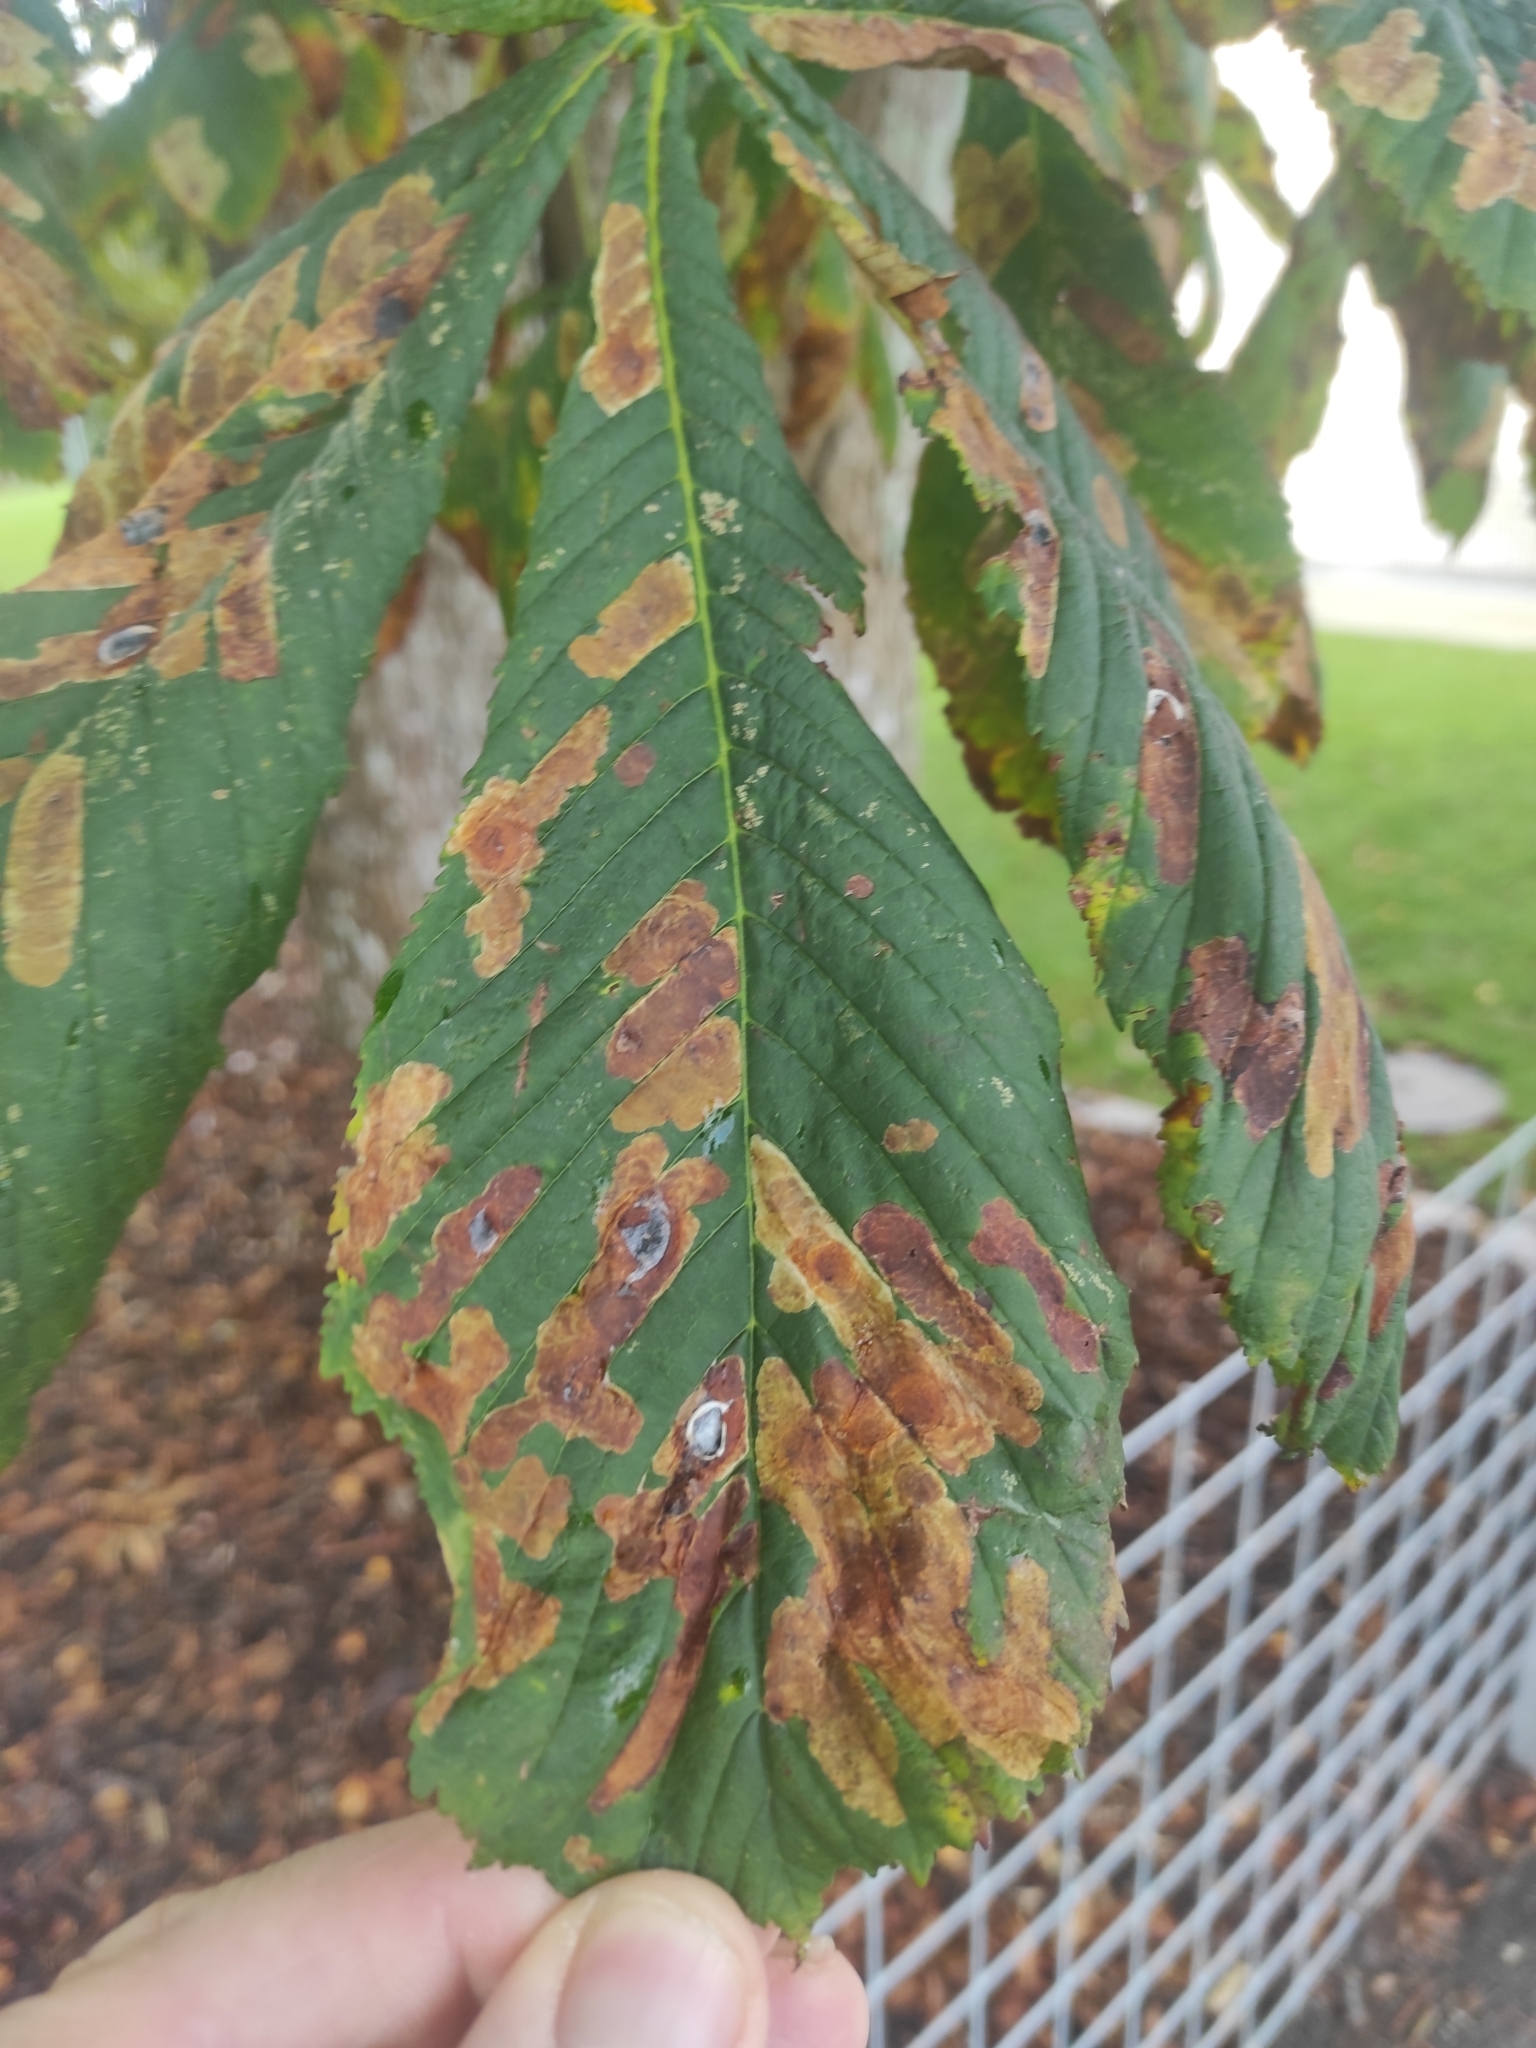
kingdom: Animalia
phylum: Arthropoda
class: Insecta
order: Lepidoptera
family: Gracillariidae
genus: Cameraria
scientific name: Cameraria ohridella
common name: Horse-chestnut leaf-miner
